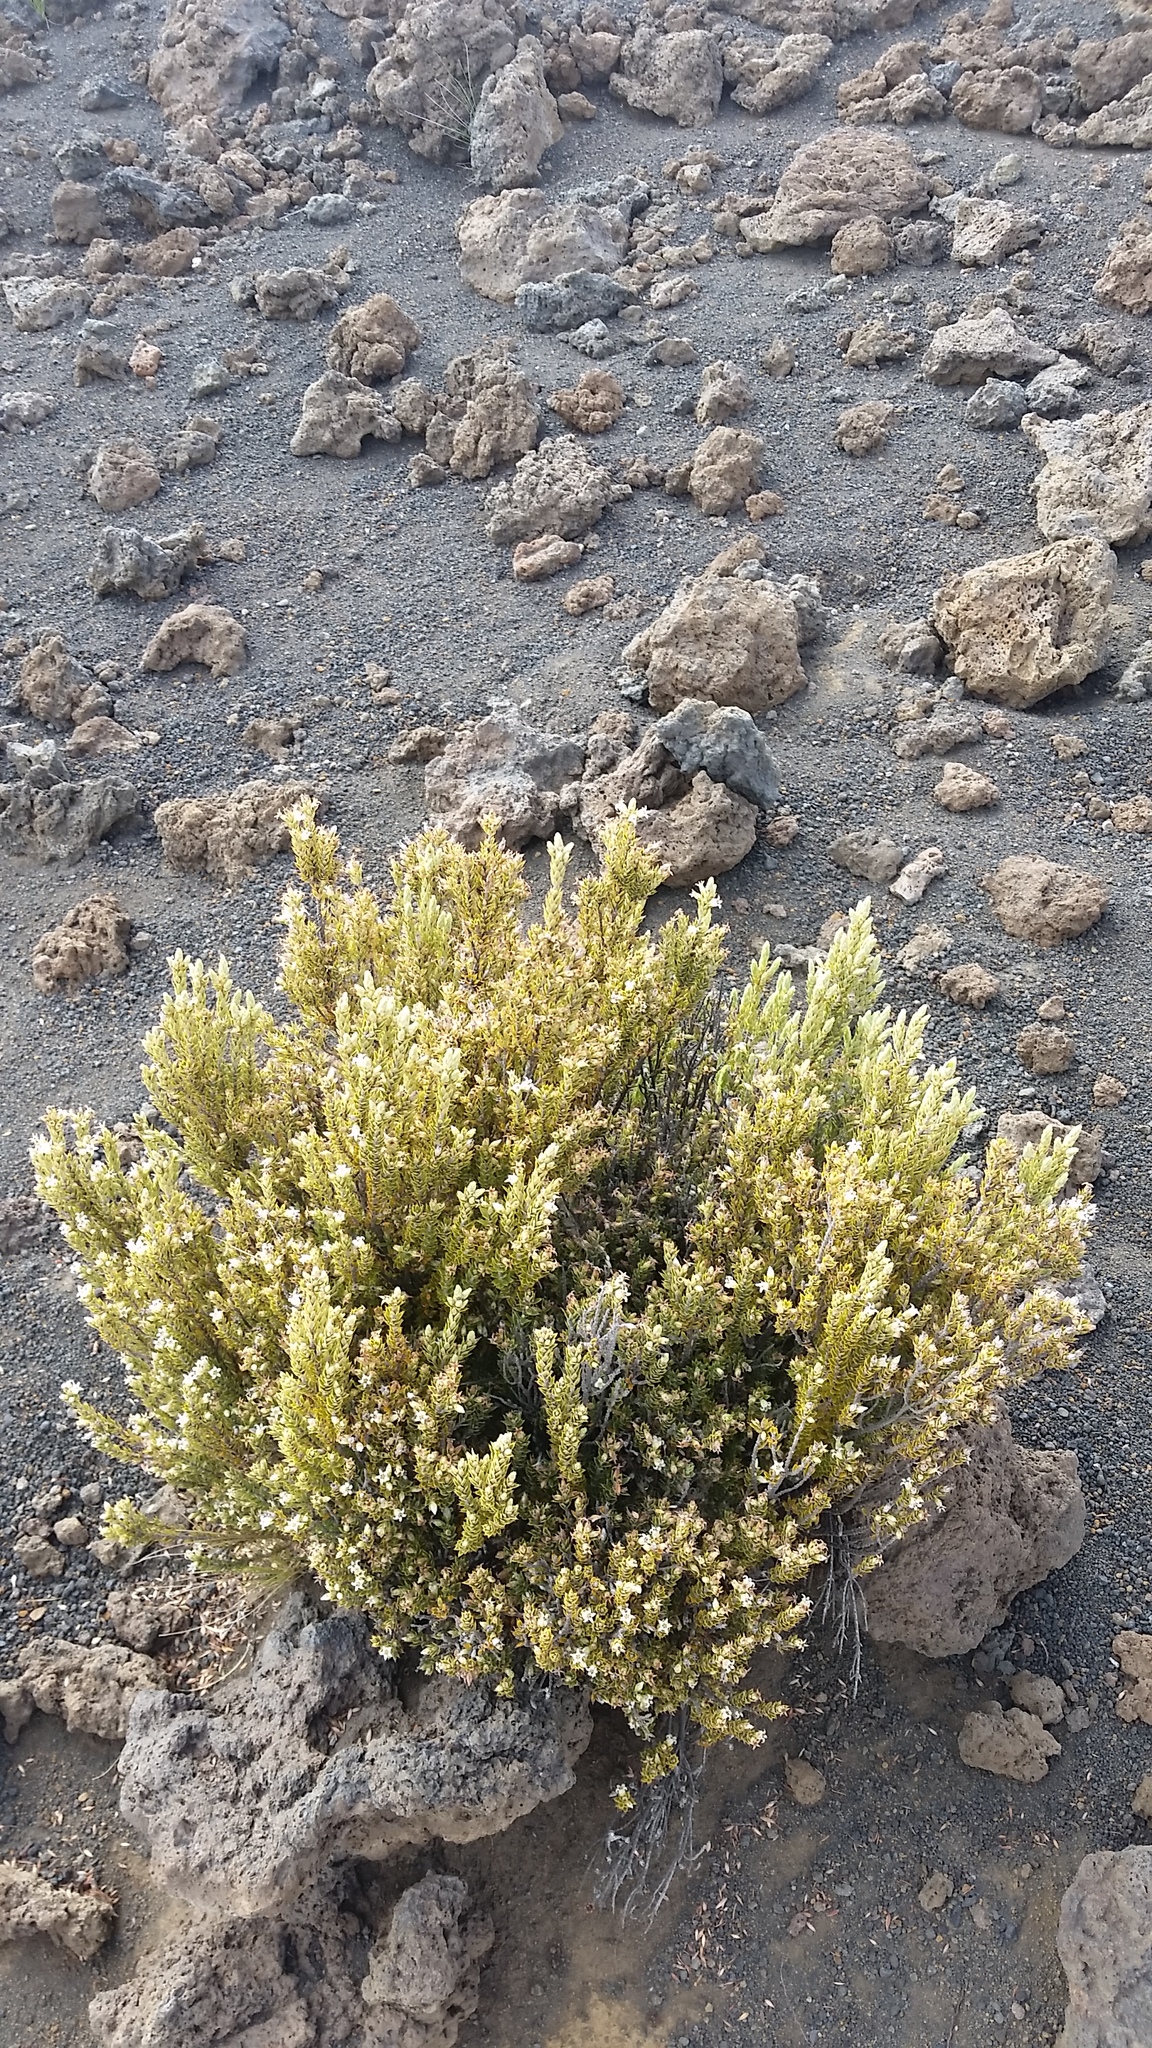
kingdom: Plantae
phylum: Tracheophyta
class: Magnoliopsida
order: Ericales
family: Ericaceae
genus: Leptecophylla
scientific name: Leptecophylla tameiameiae
